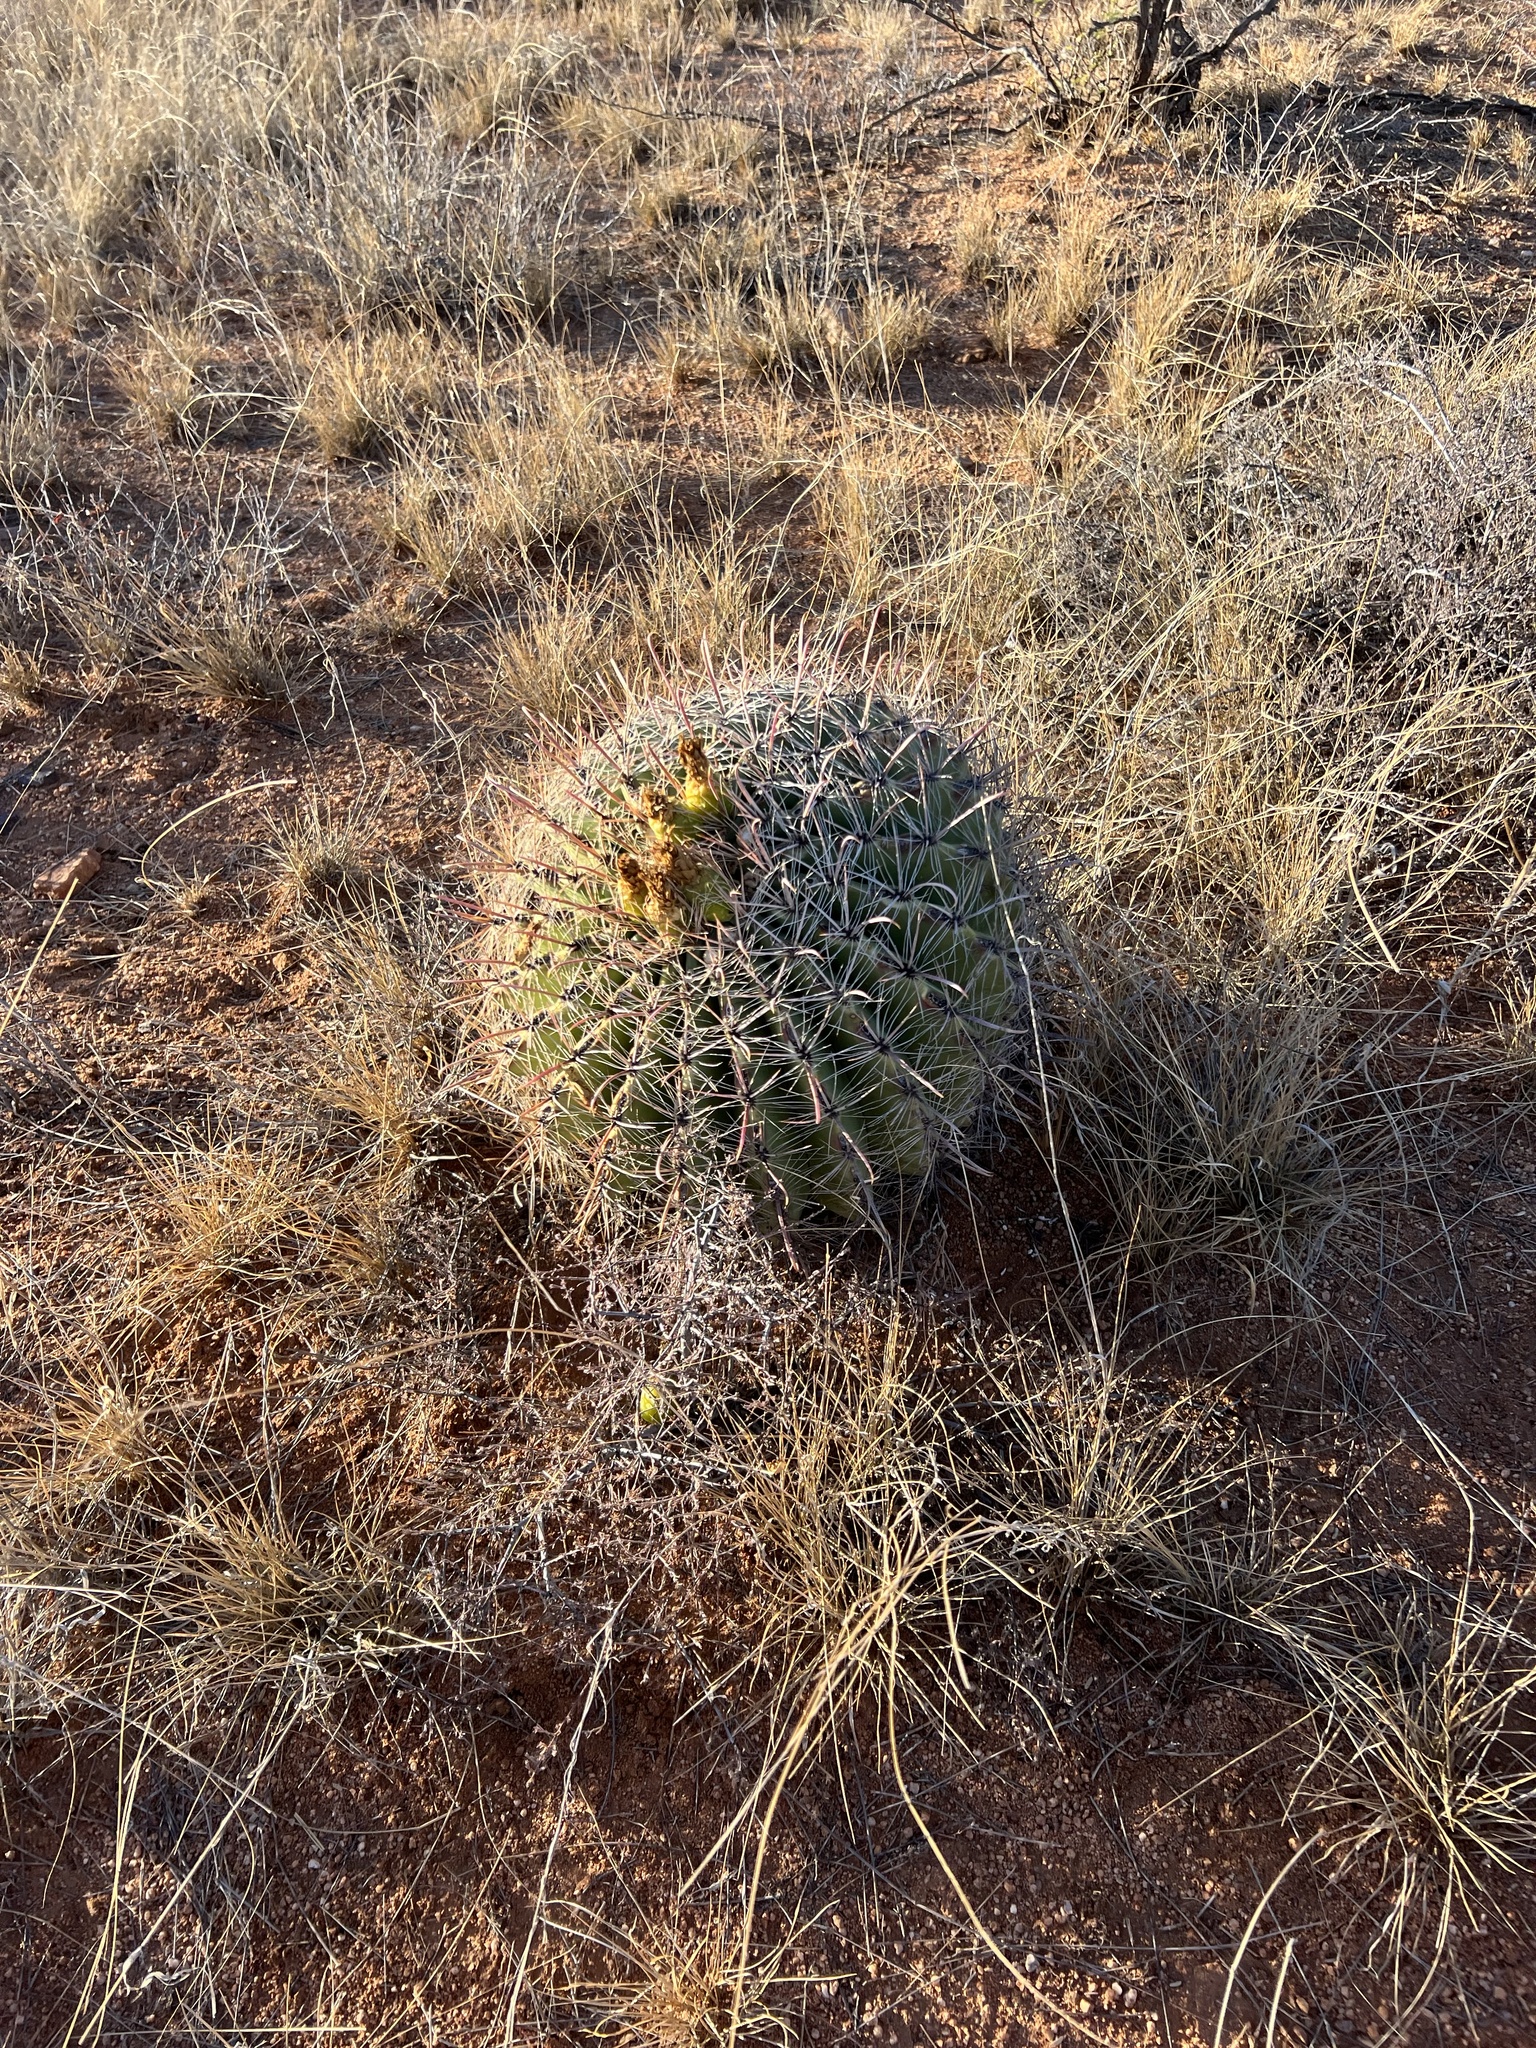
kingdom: Plantae
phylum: Tracheophyta
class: Magnoliopsida
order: Caryophyllales
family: Cactaceae
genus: Ferocactus
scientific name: Ferocactus wislizeni
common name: Candy barrel cactus
